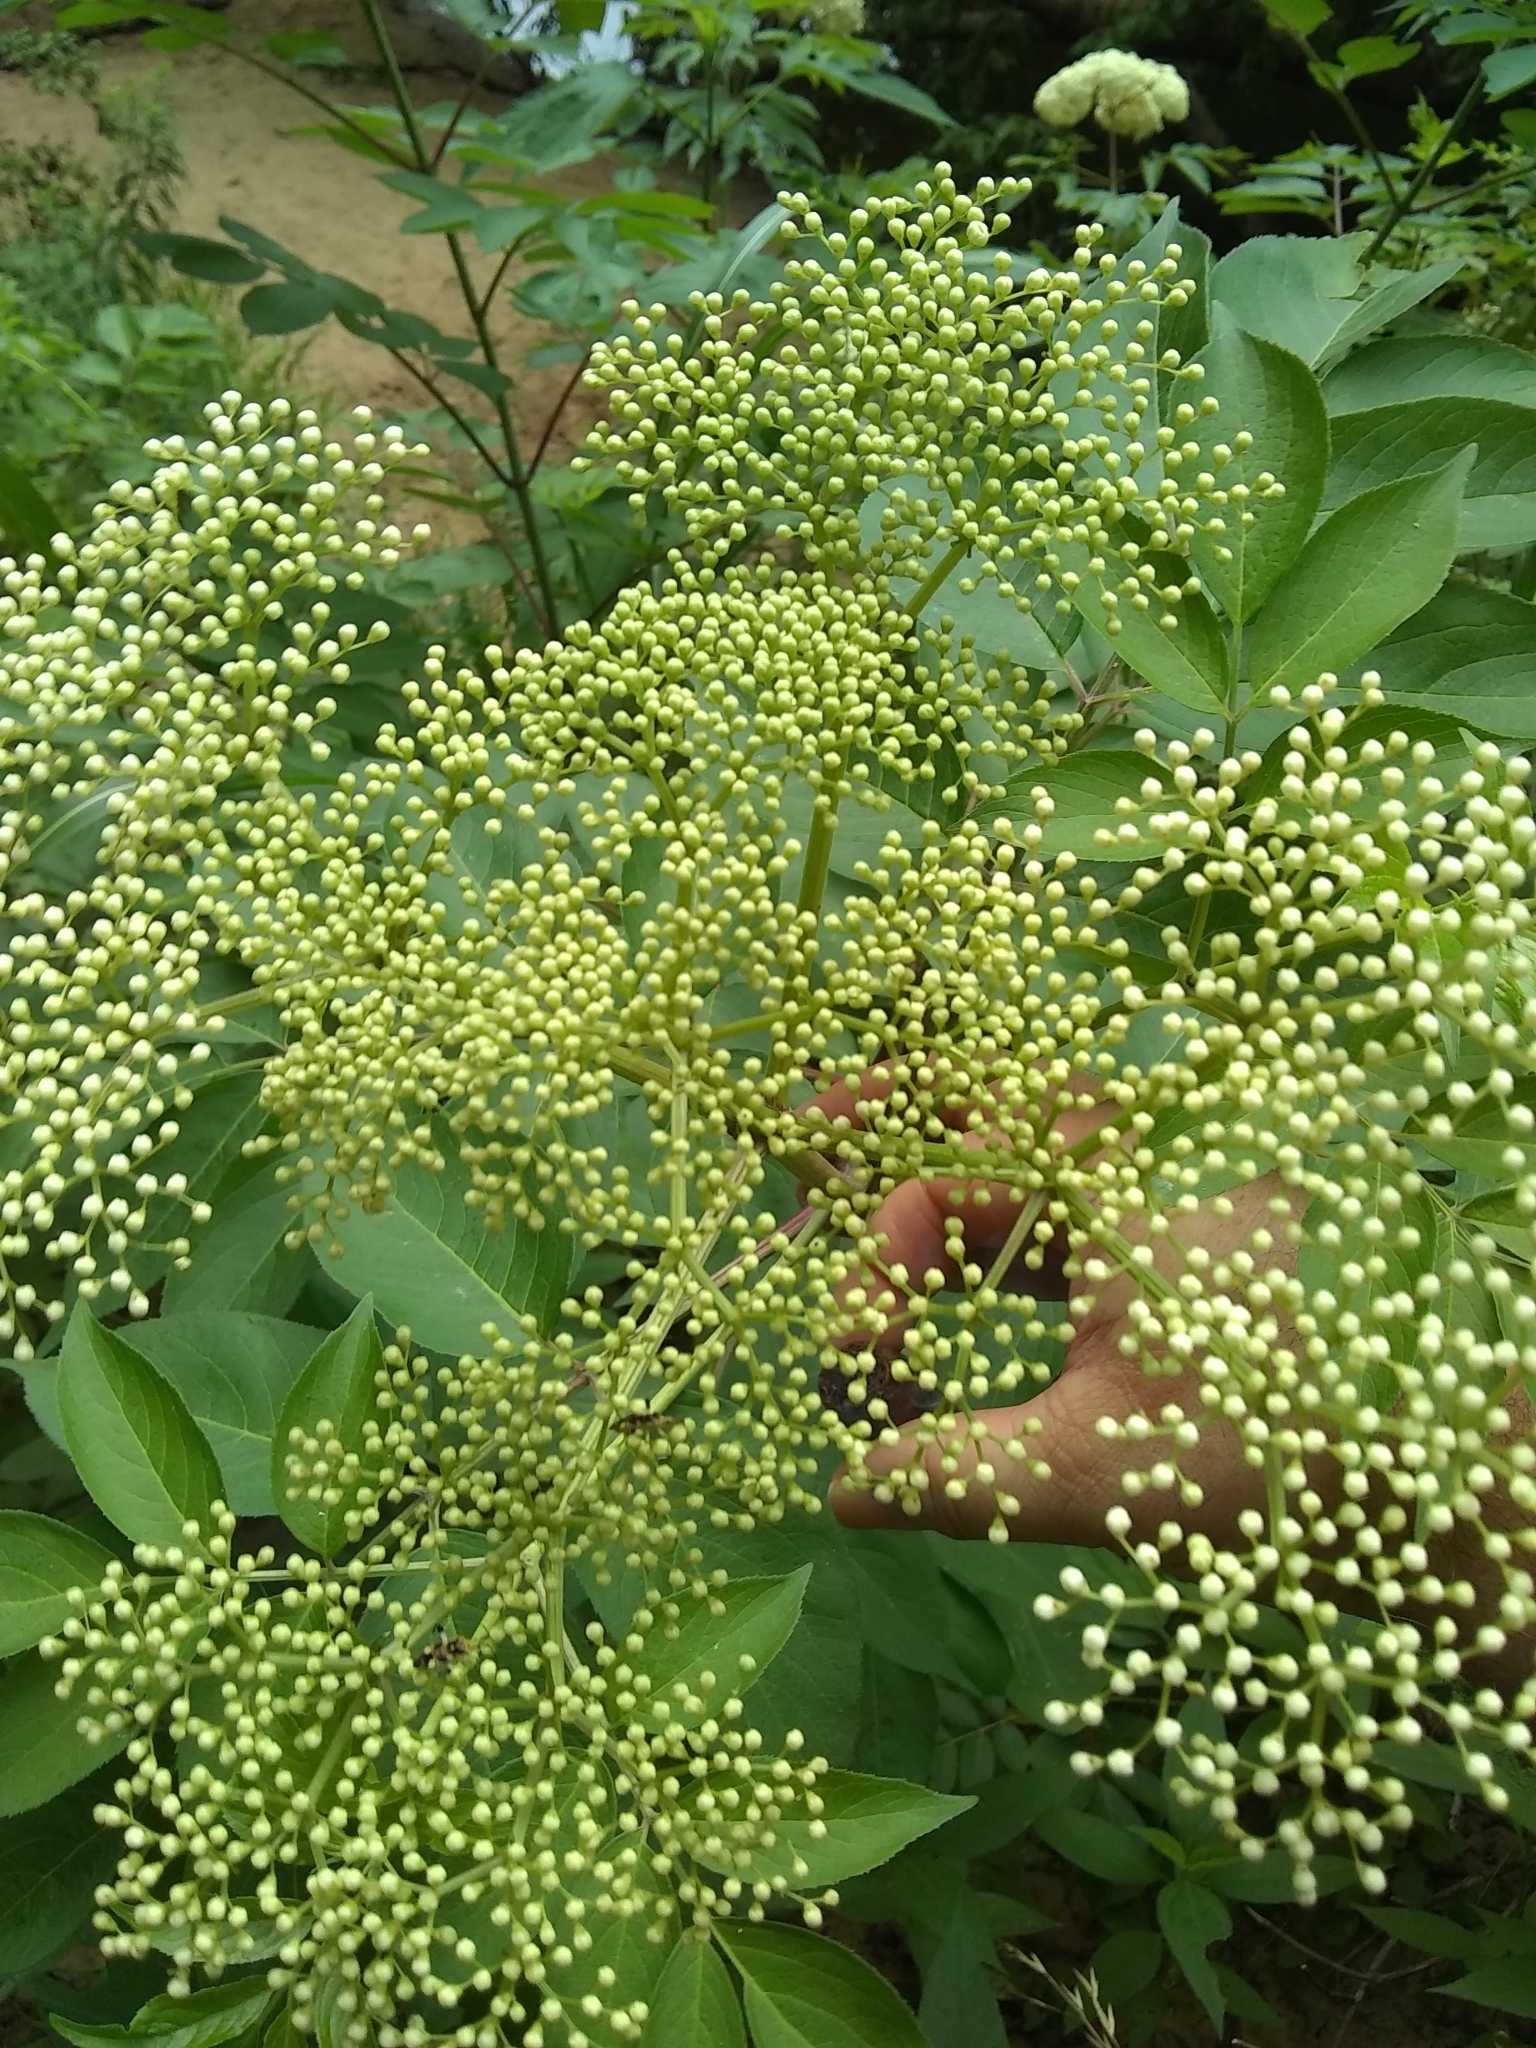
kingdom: Plantae
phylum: Tracheophyta
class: Magnoliopsida
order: Dipsacales
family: Viburnaceae
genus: Sambucus
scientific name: Sambucus canadensis
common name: American elder
